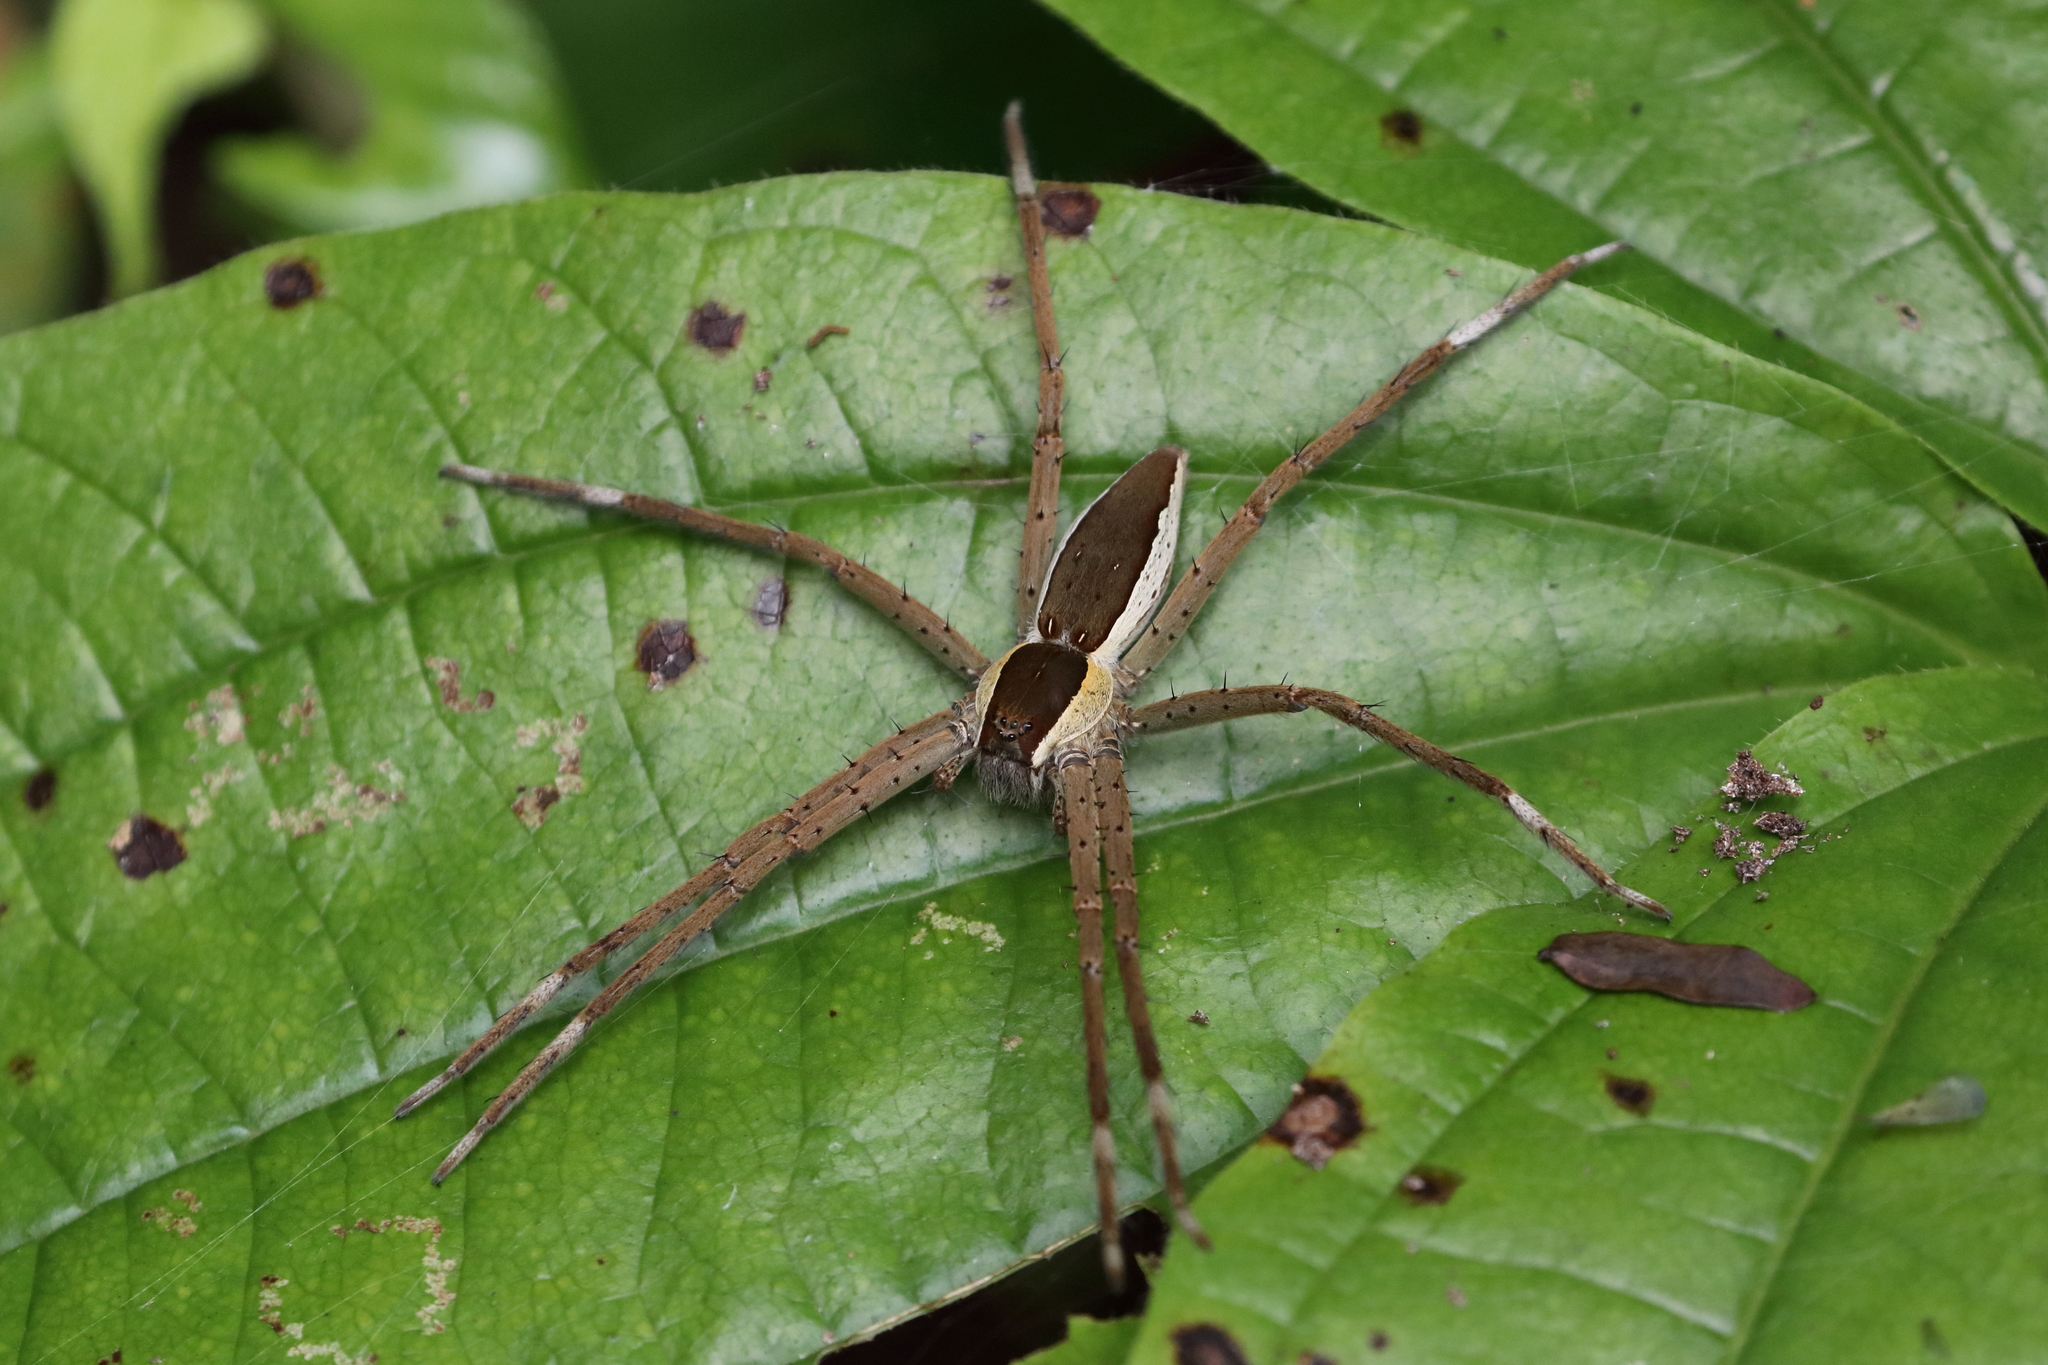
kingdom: Animalia
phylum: Arthropoda
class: Arachnida
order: Araneae
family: Pisauridae
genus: Nilus
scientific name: Nilus albocinctus
